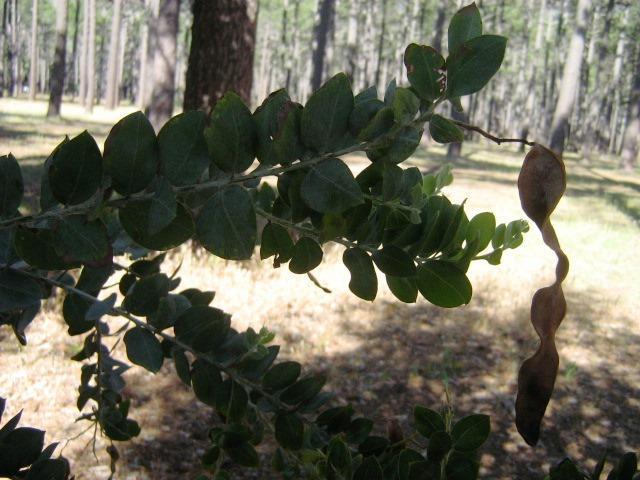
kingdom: Plantae
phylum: Tracheophyta
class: Magnoliopsida
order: Fabales
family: Fabaceae
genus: Acacia
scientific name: Acacia podalyriifolia
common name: Pearl wattle
